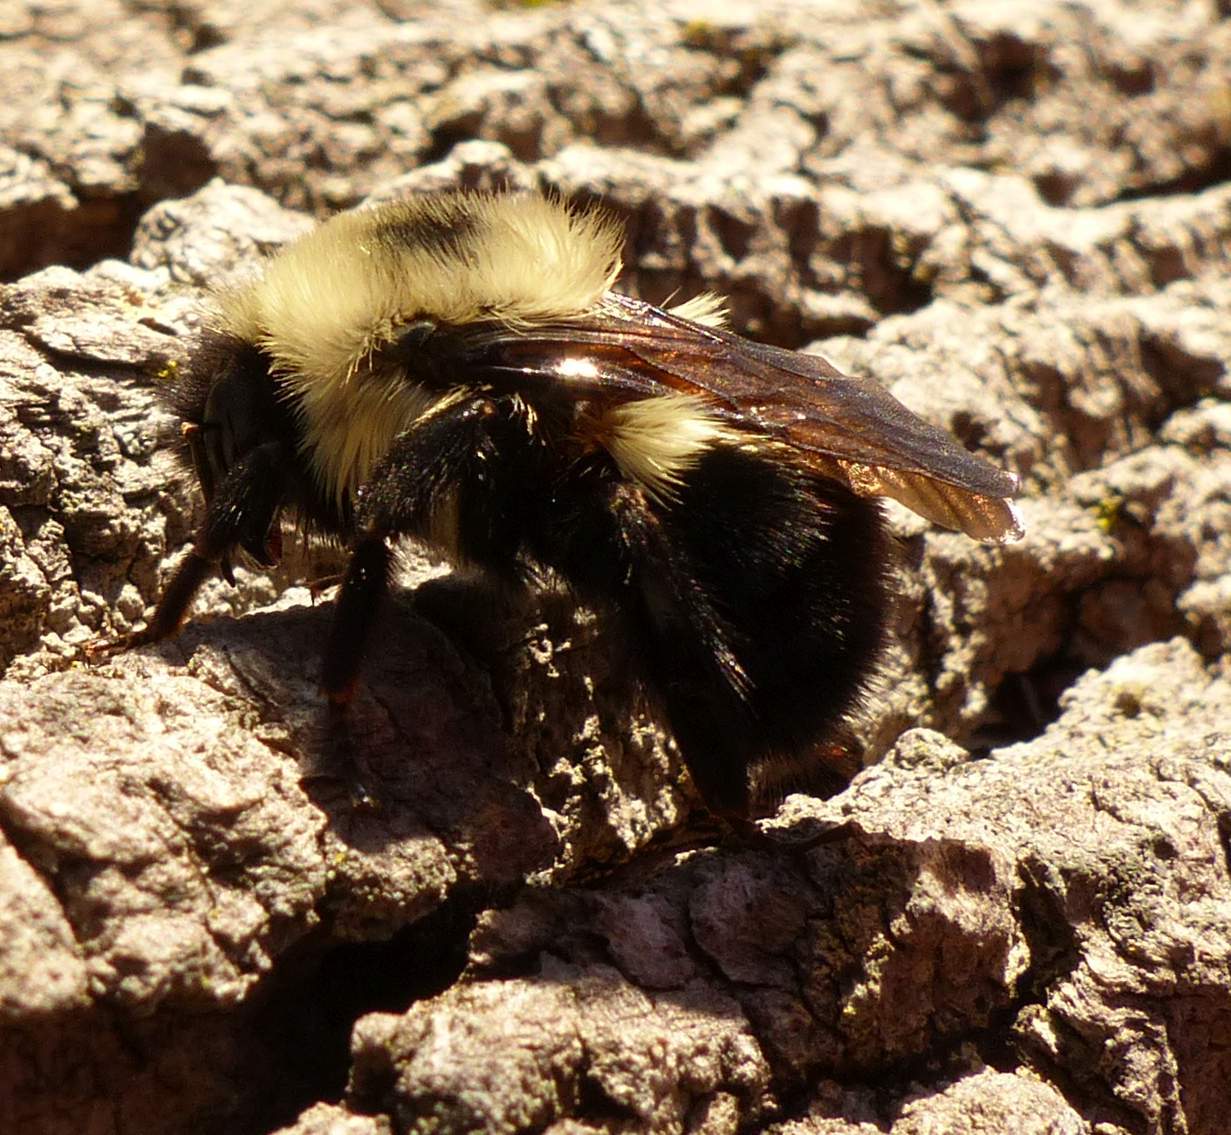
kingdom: Animalia
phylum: Arthropoda
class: Insecta
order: Hymenoptera
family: Apidae
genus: Bombus
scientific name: Bombus bimaculatus
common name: Two-spotted bumble bee
